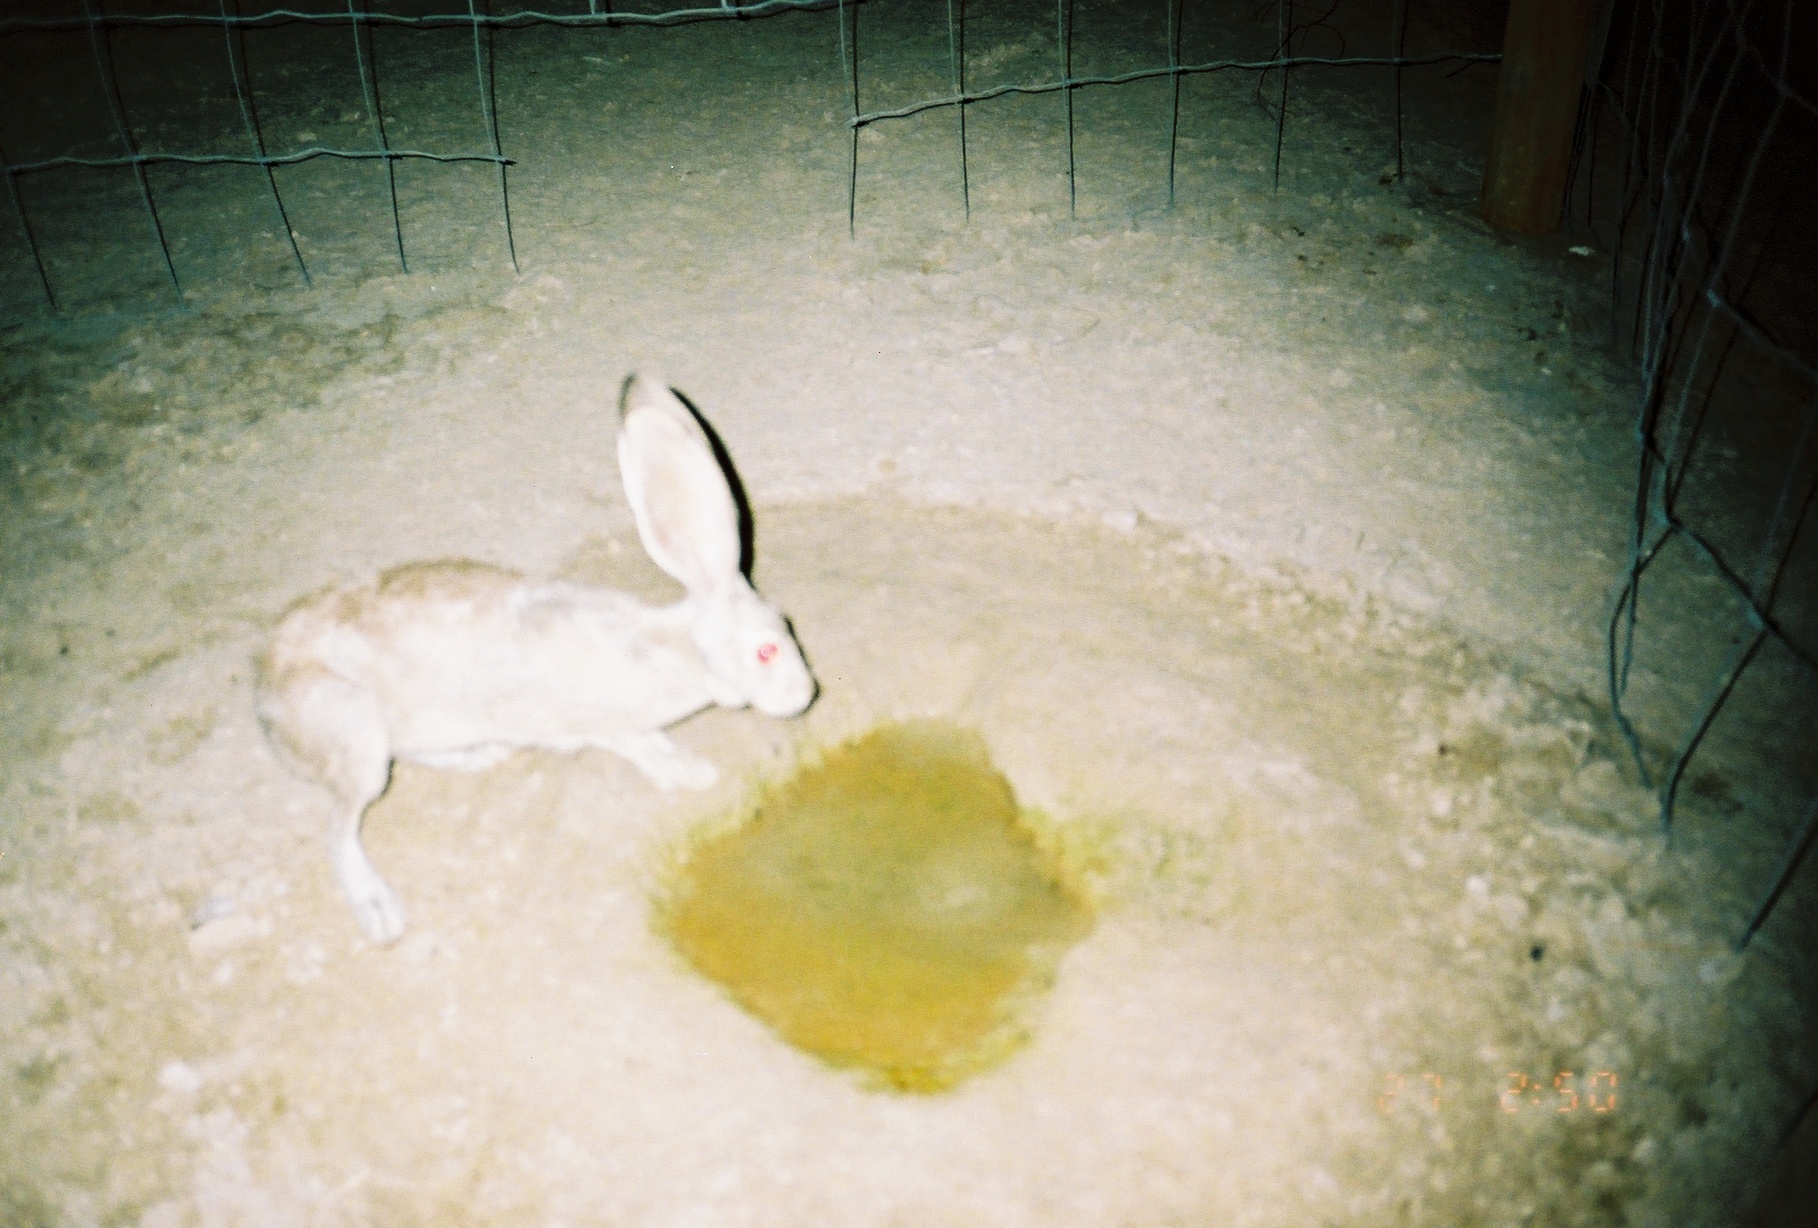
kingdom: Animalia
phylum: Chordata
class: Mammalia
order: Lagomorpha
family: Leporidae
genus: Lepus
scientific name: Lepus californicus
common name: Black-tailed jackrabbit
